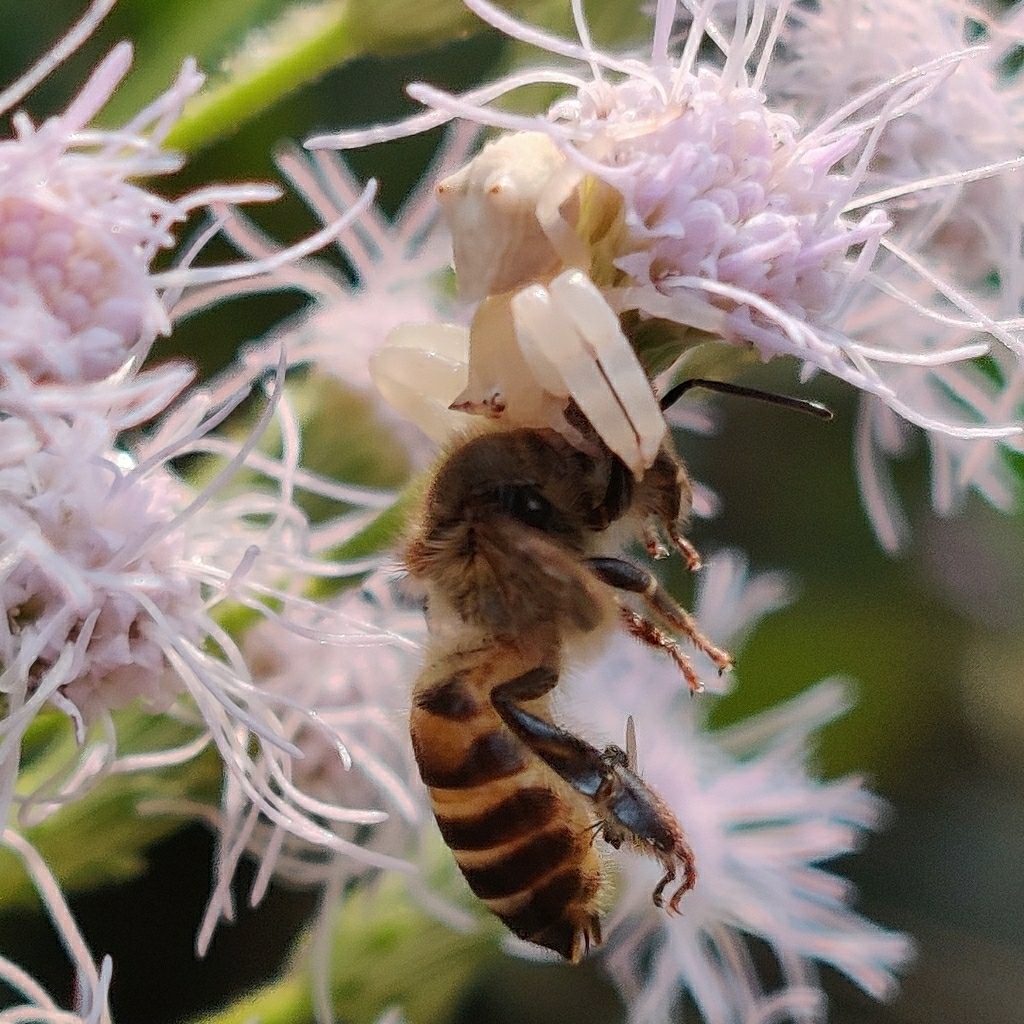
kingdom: Animalia
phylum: Arthropoda
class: Insecta
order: Hymenoptera
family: Apidae
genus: Apis
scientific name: Apis cerana
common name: Honey bee
